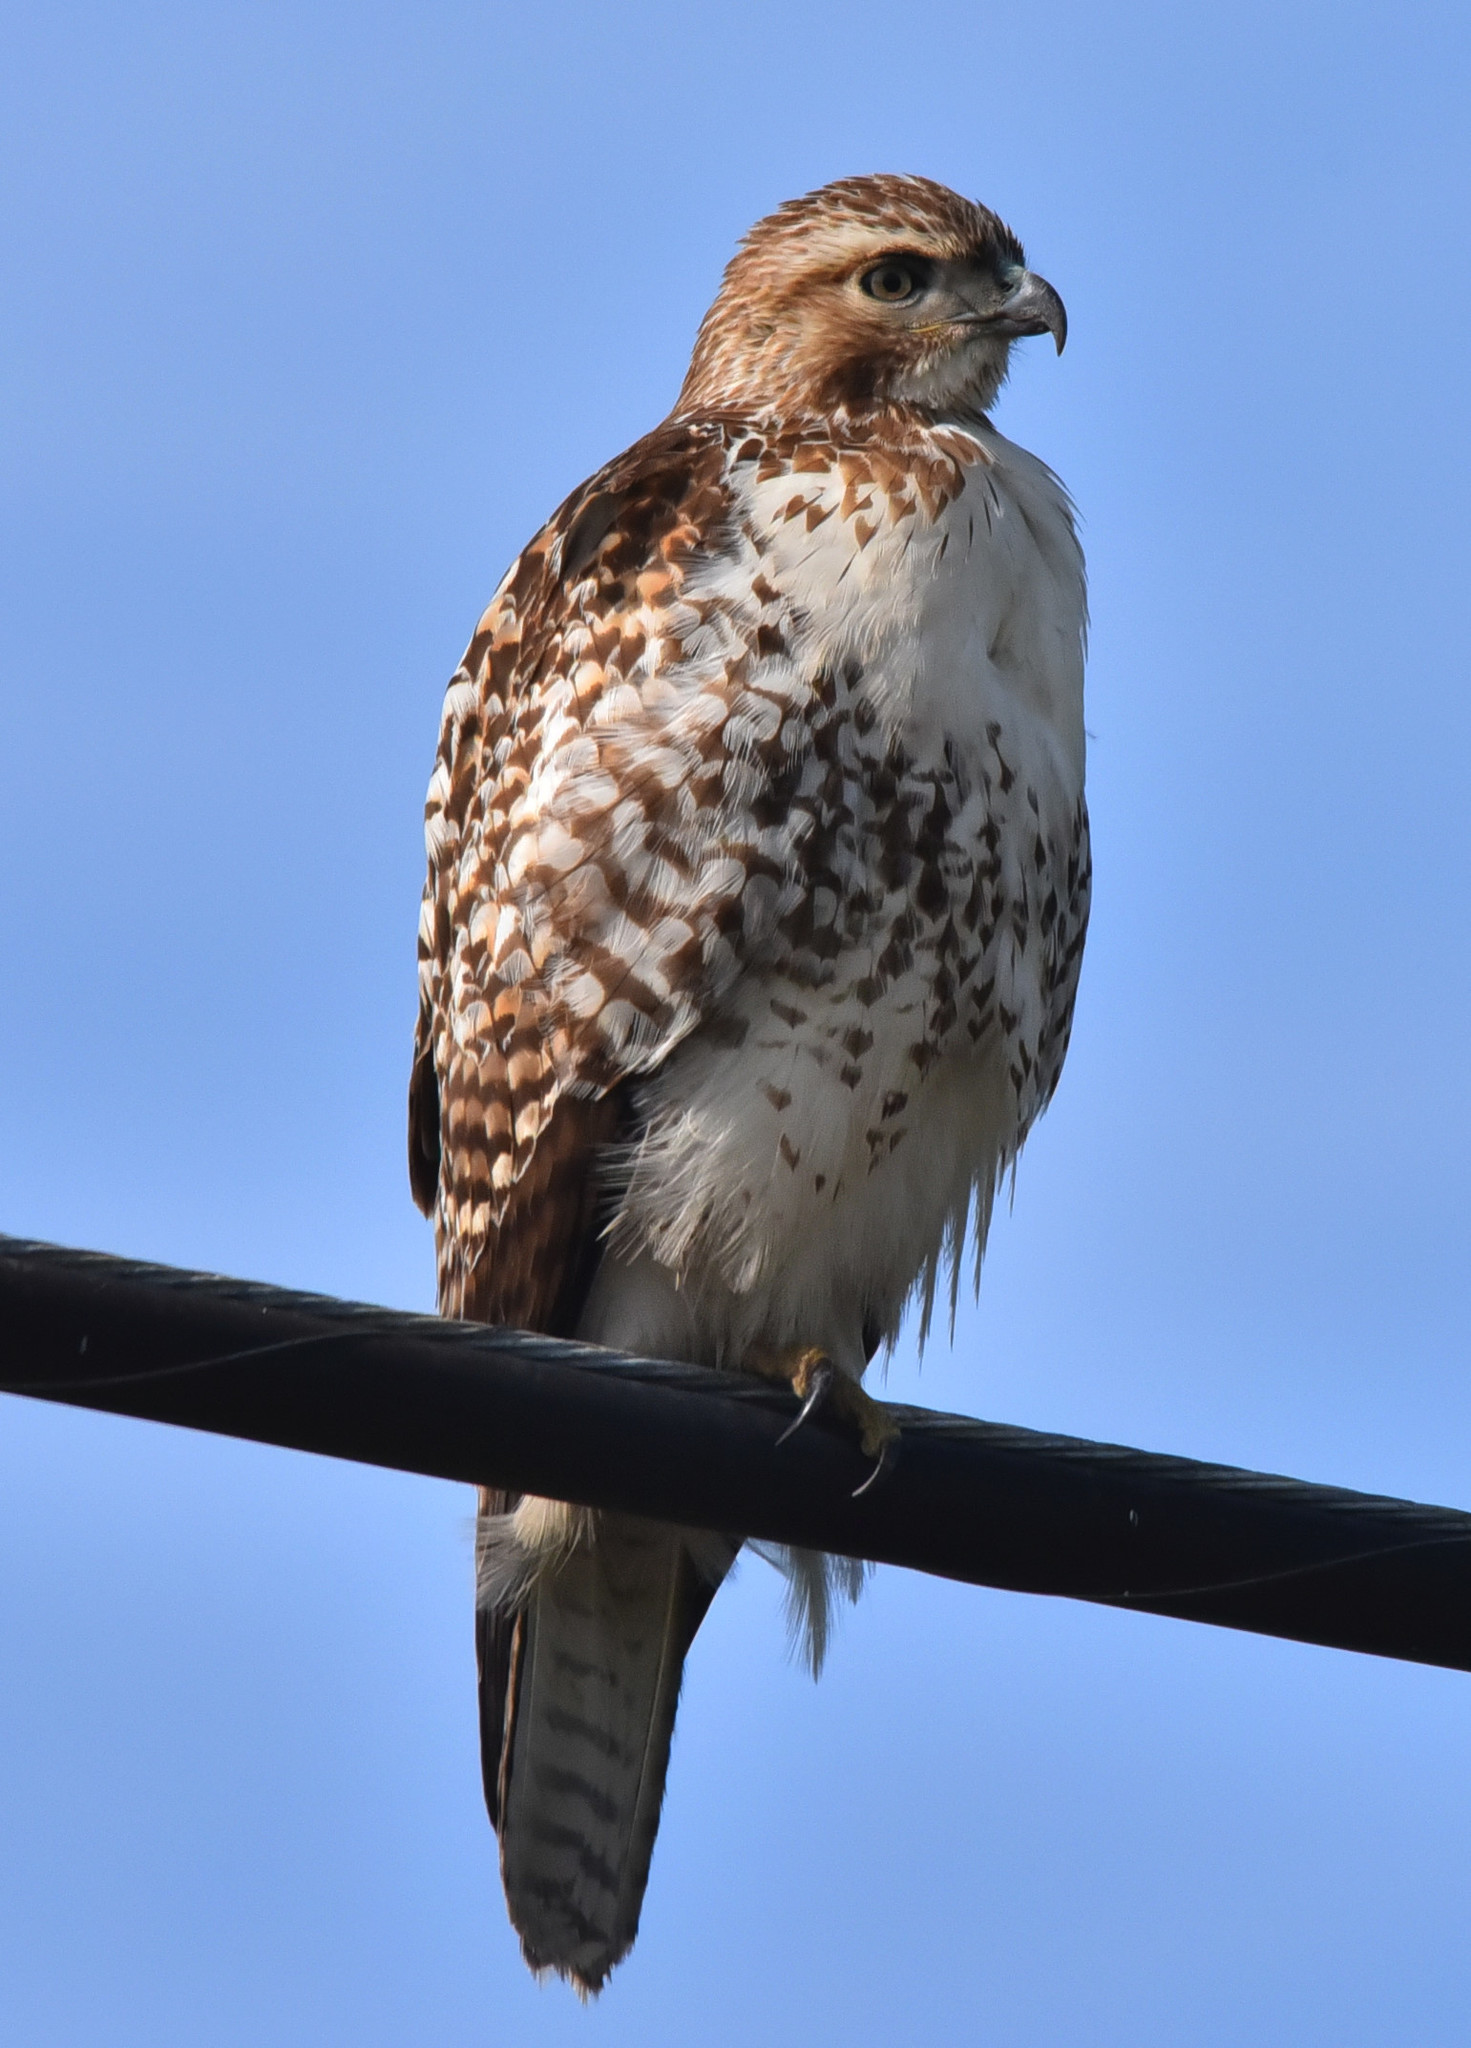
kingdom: Animalia
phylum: Chordata
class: Aves
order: Accipitriformes
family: Accipitridae
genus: Buteo
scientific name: Buteo jamaicensis
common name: Red-tailed hawk
